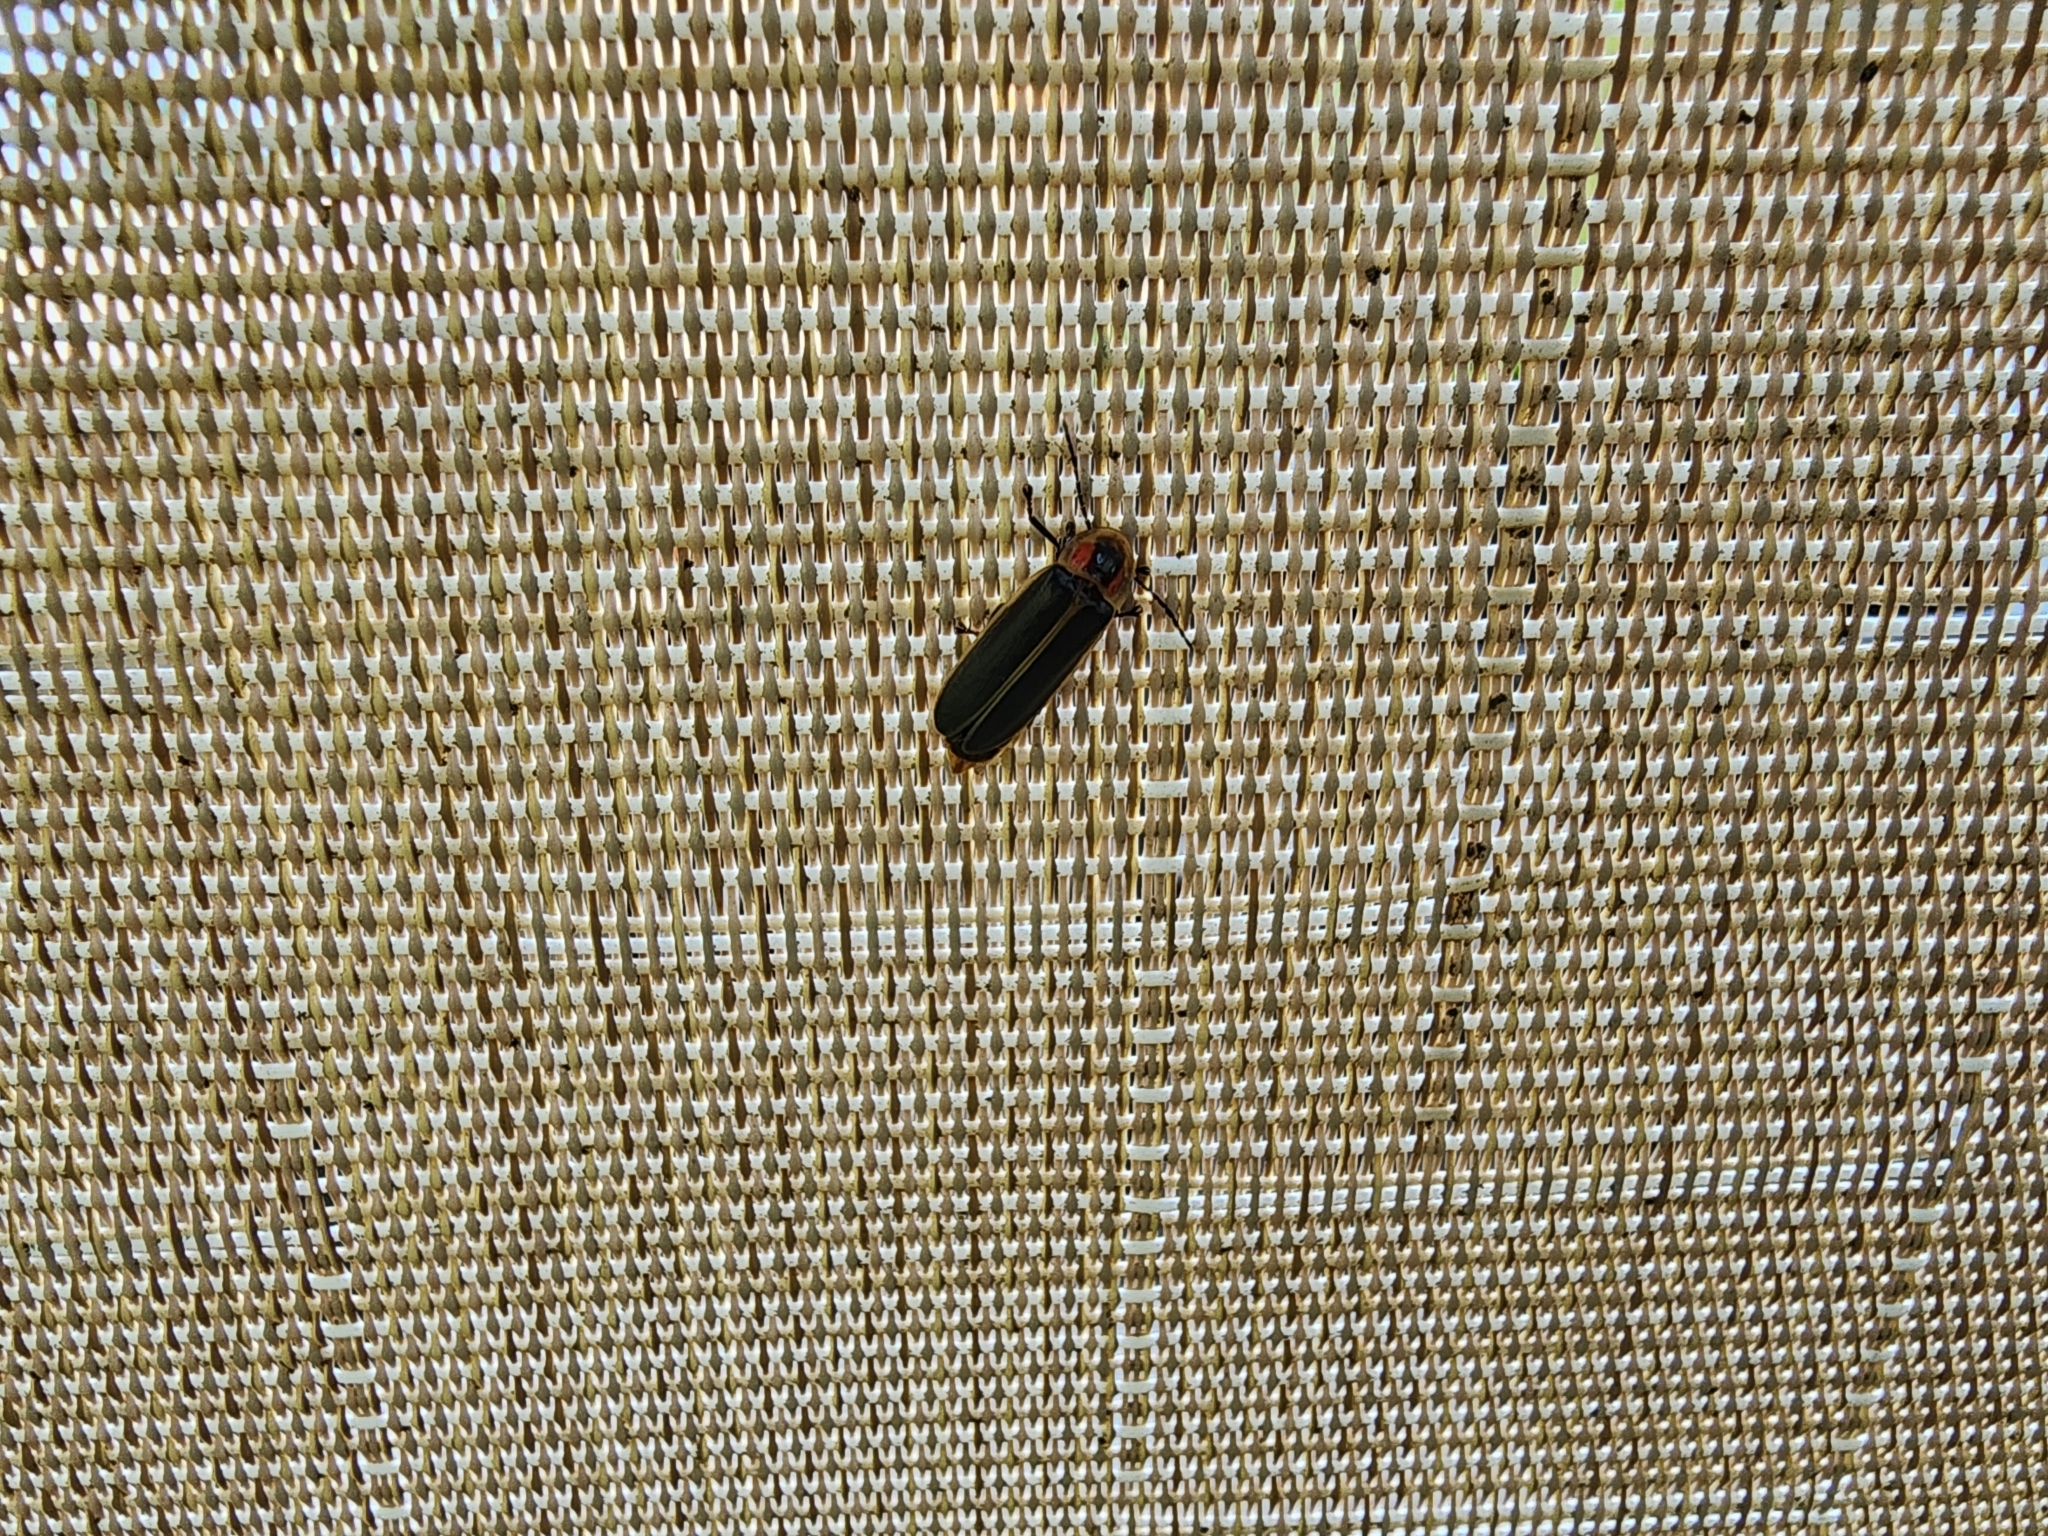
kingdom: Animalia
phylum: Arthropoda
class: Insecta
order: Coleoptera
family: Lampyridae
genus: Photinus
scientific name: Photinus pyralis
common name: Big dipper firefly
